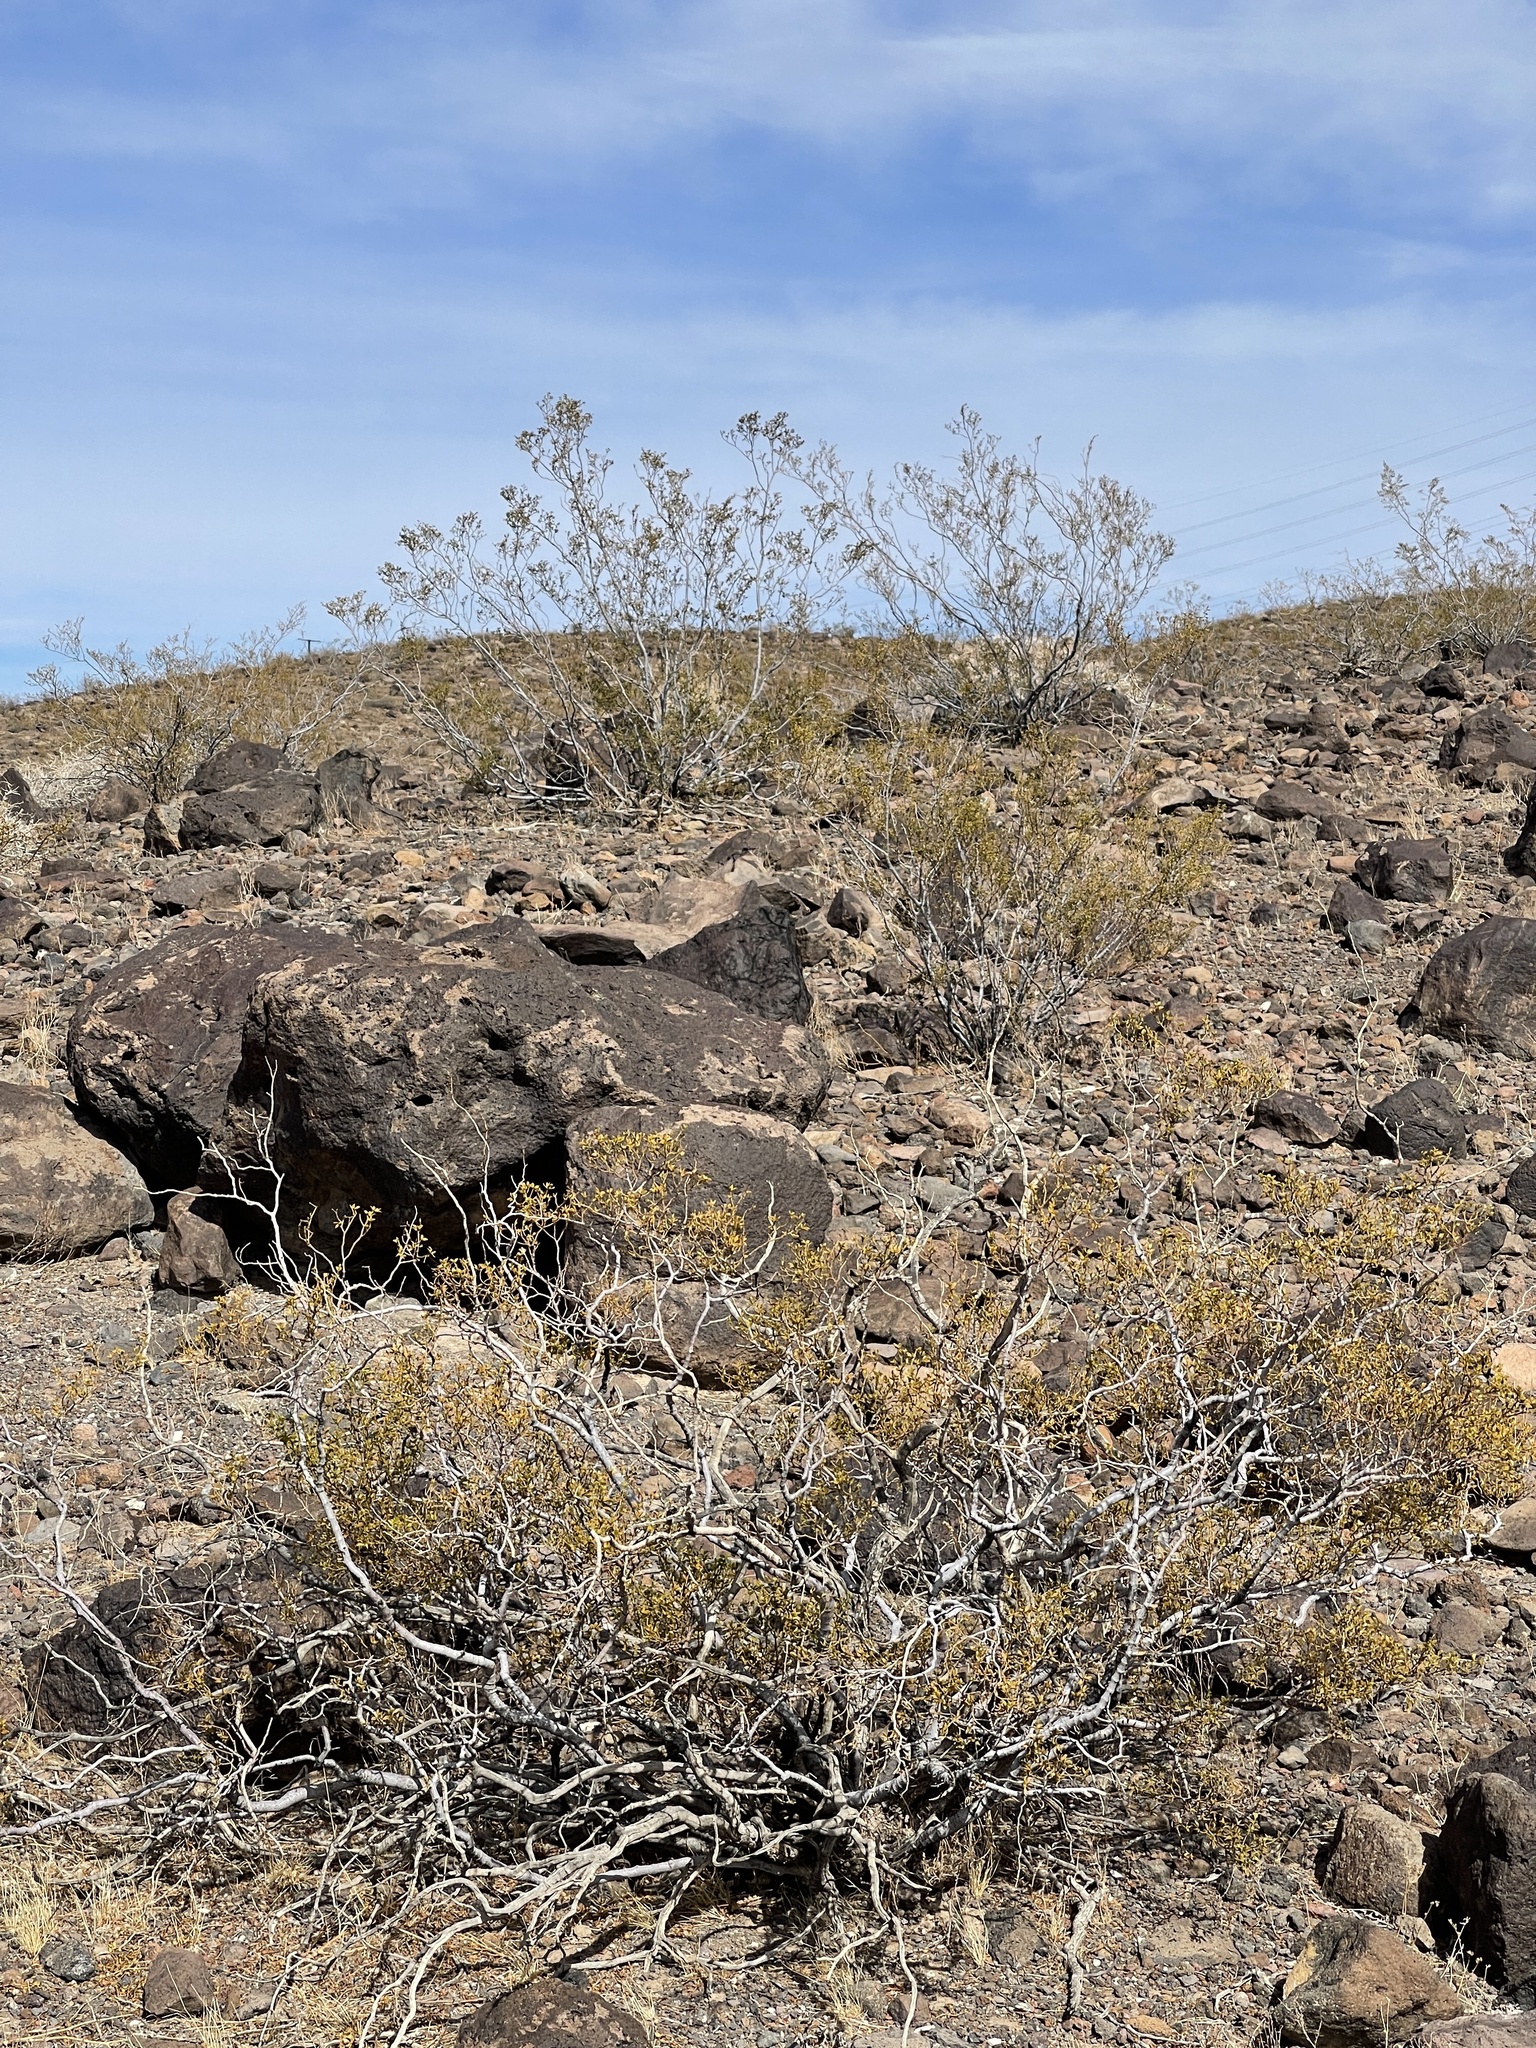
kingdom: Plantae
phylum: Tracheophyta
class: Magnoliopsida
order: Zygophyllales
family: Zygophyllaceae
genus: Larrea
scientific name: Larrea tridentata
